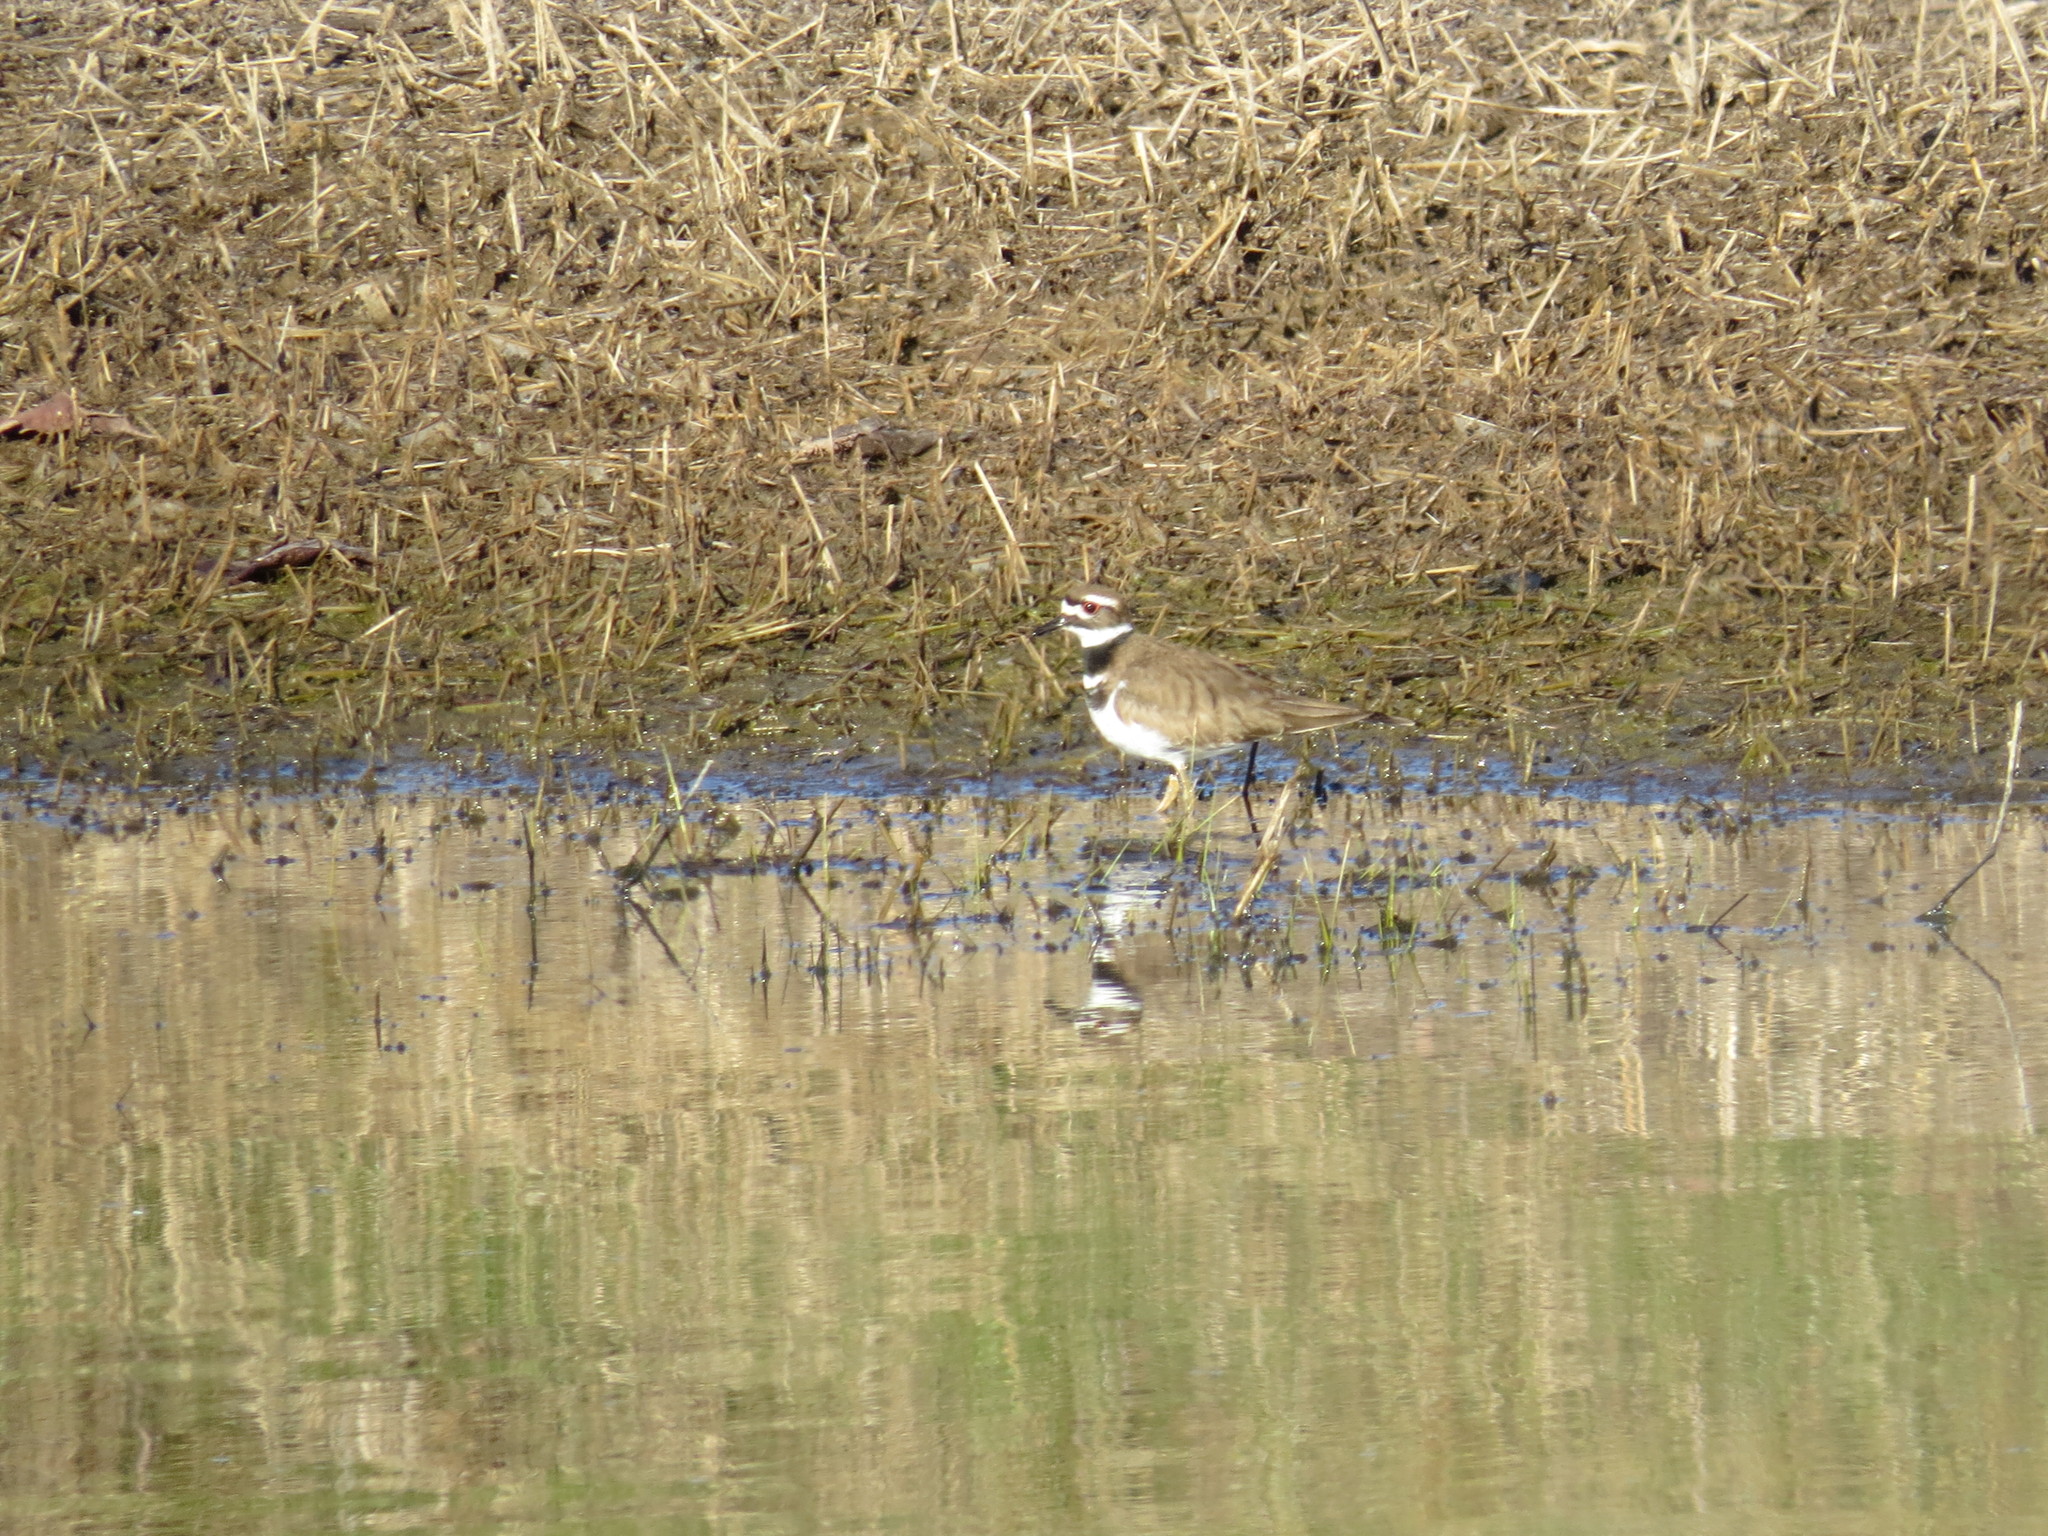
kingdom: Animalia
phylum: Chordata
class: Aves
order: Charadriiformes
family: Charadriidae
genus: Charadrius
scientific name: Charadrius vociferus
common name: Killdeer
